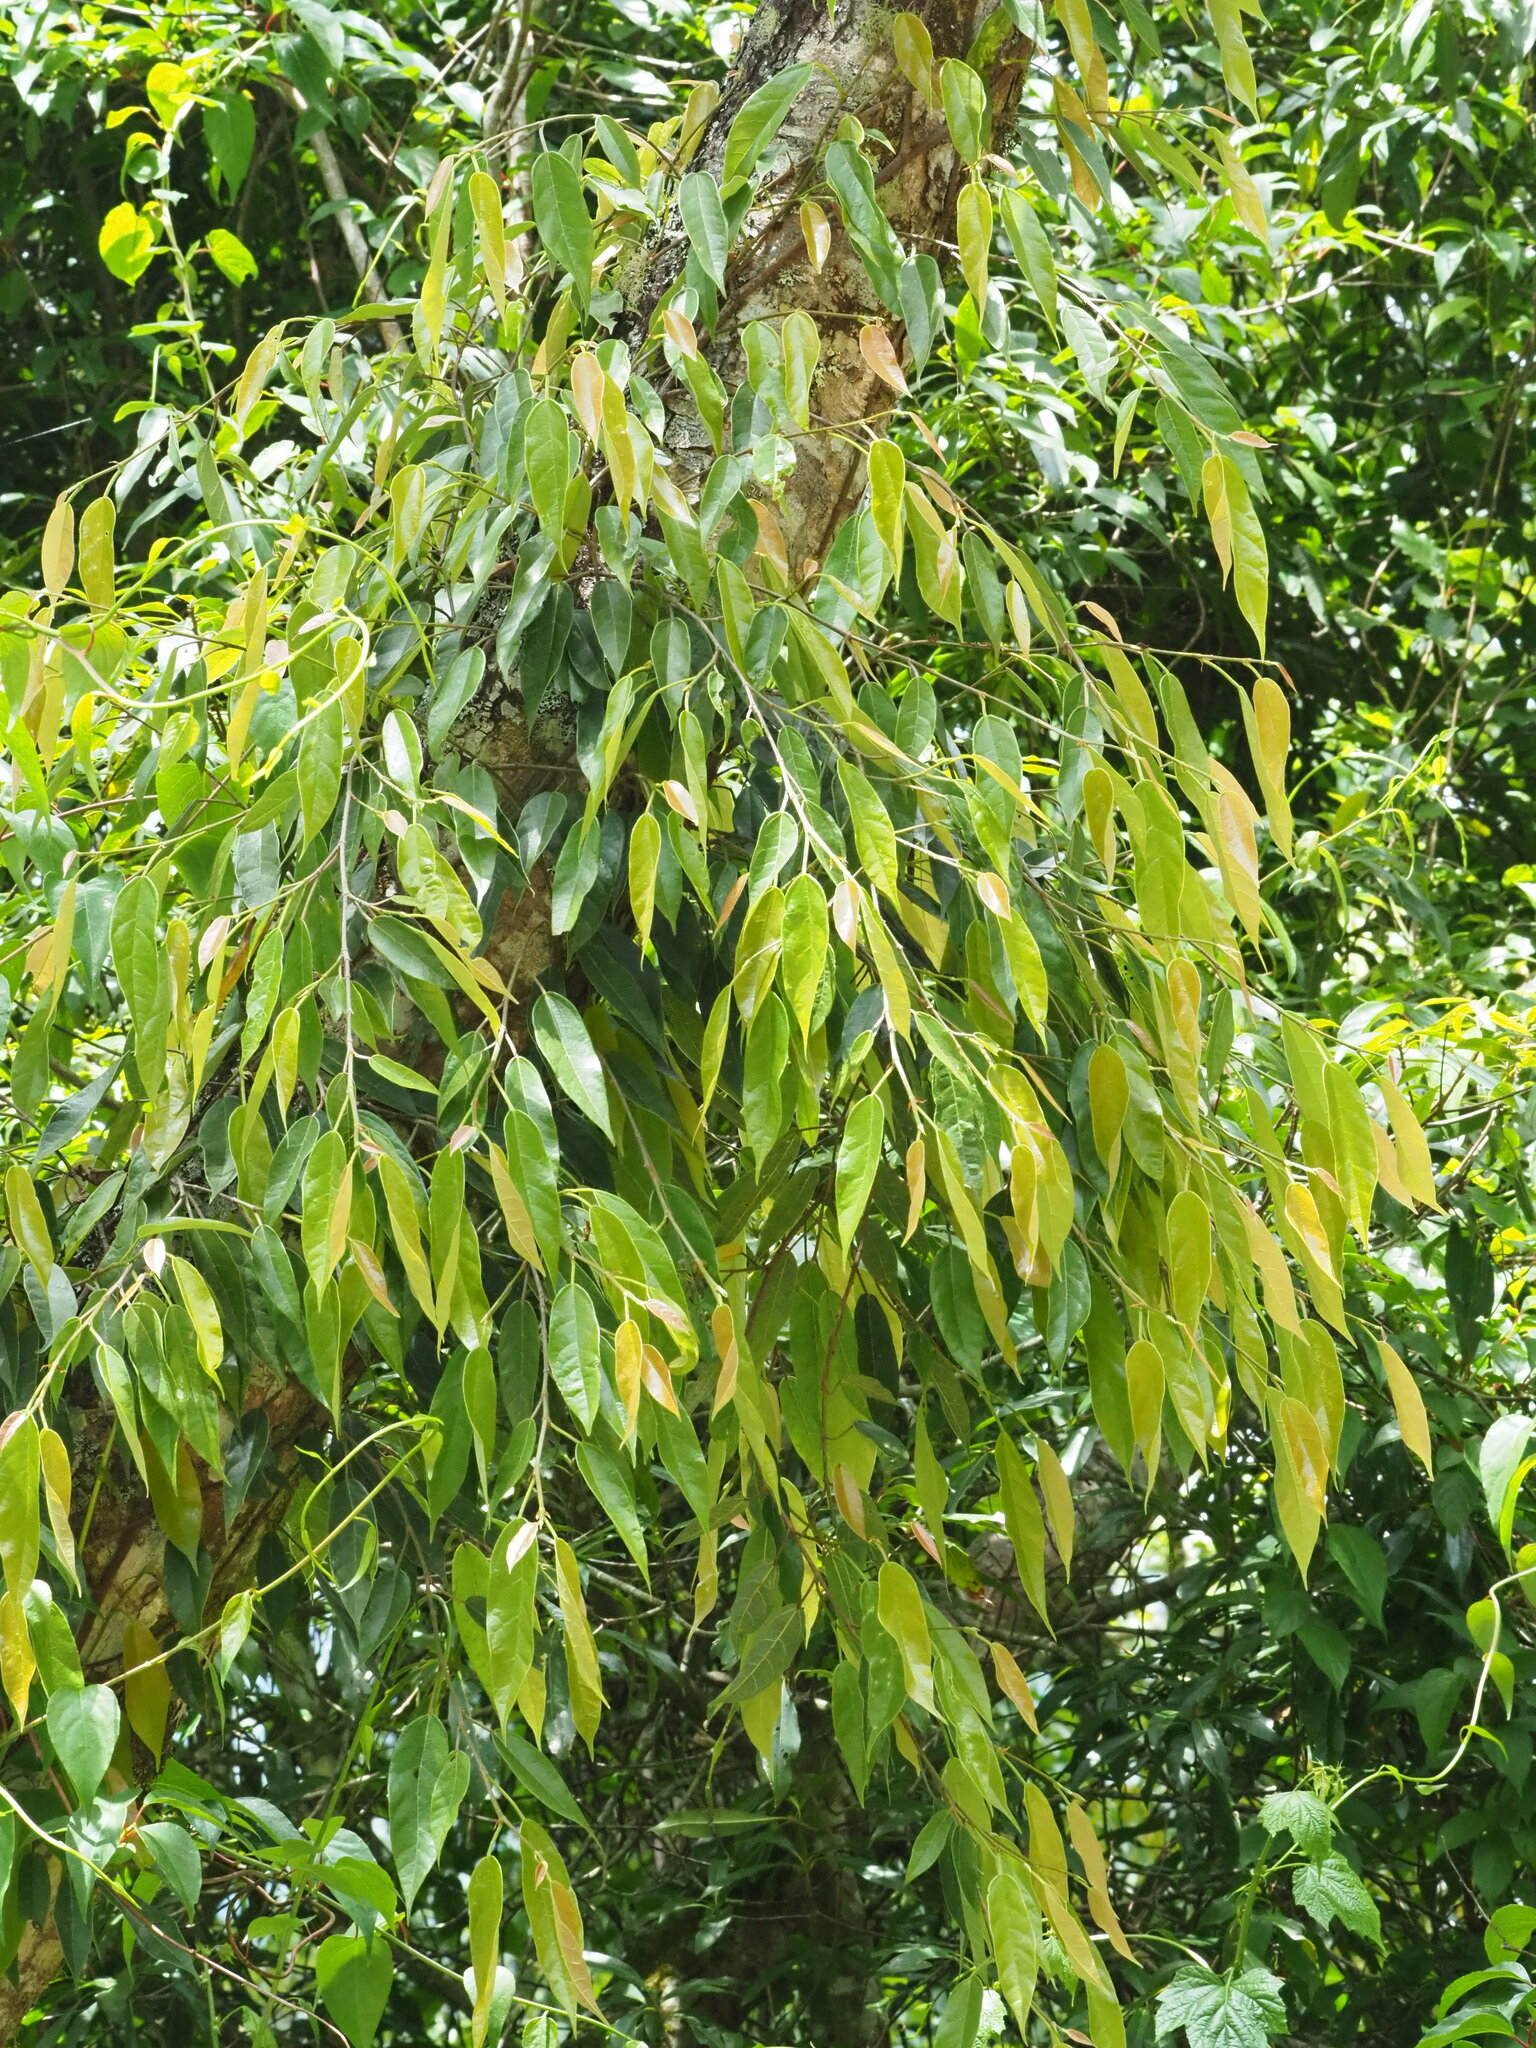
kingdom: Plantae
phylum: Tracheophyta
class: Magnoliopsida
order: Rosales
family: Moraceae
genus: Ficus
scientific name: Ficus sarmentosa
